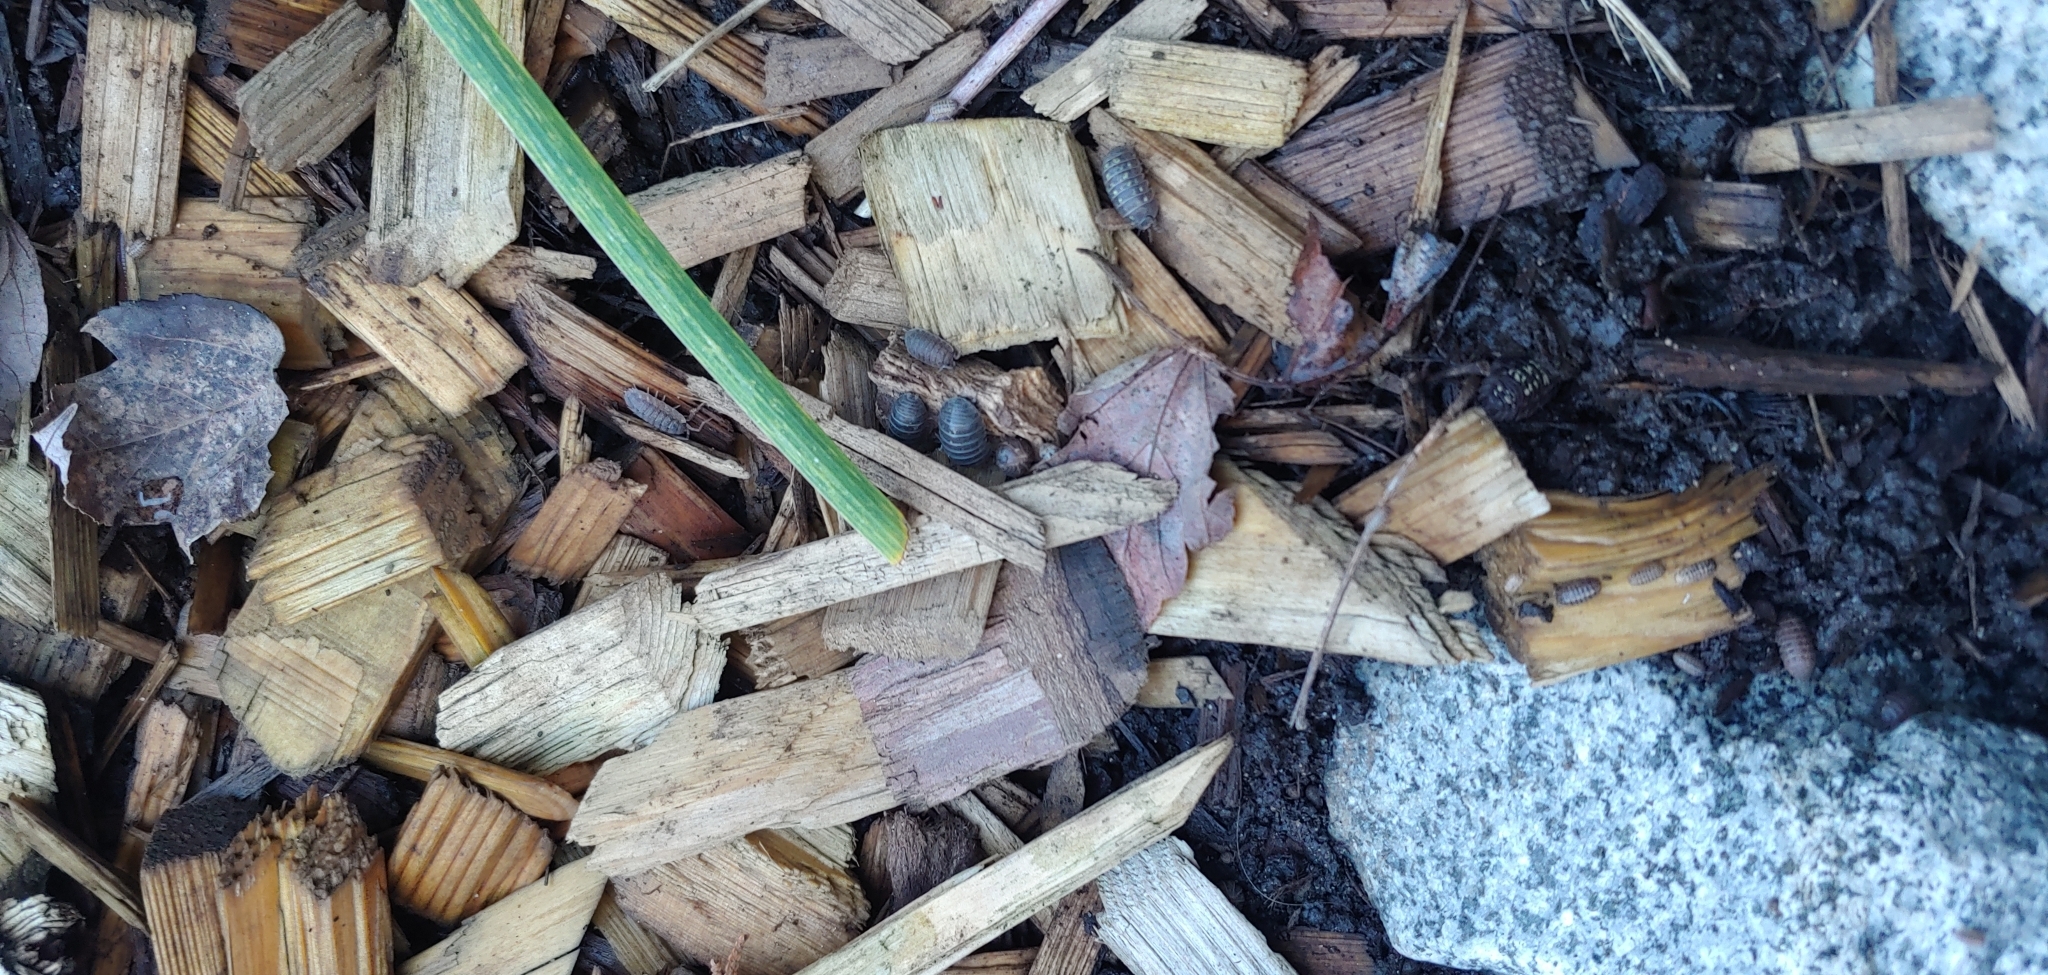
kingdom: Animalia
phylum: Arthropoda
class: Malacostraca
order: Isopoda
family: Armadillidiidae
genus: Armadillidium
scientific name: Armadillidium vulgare
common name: Common pill woodlouse
